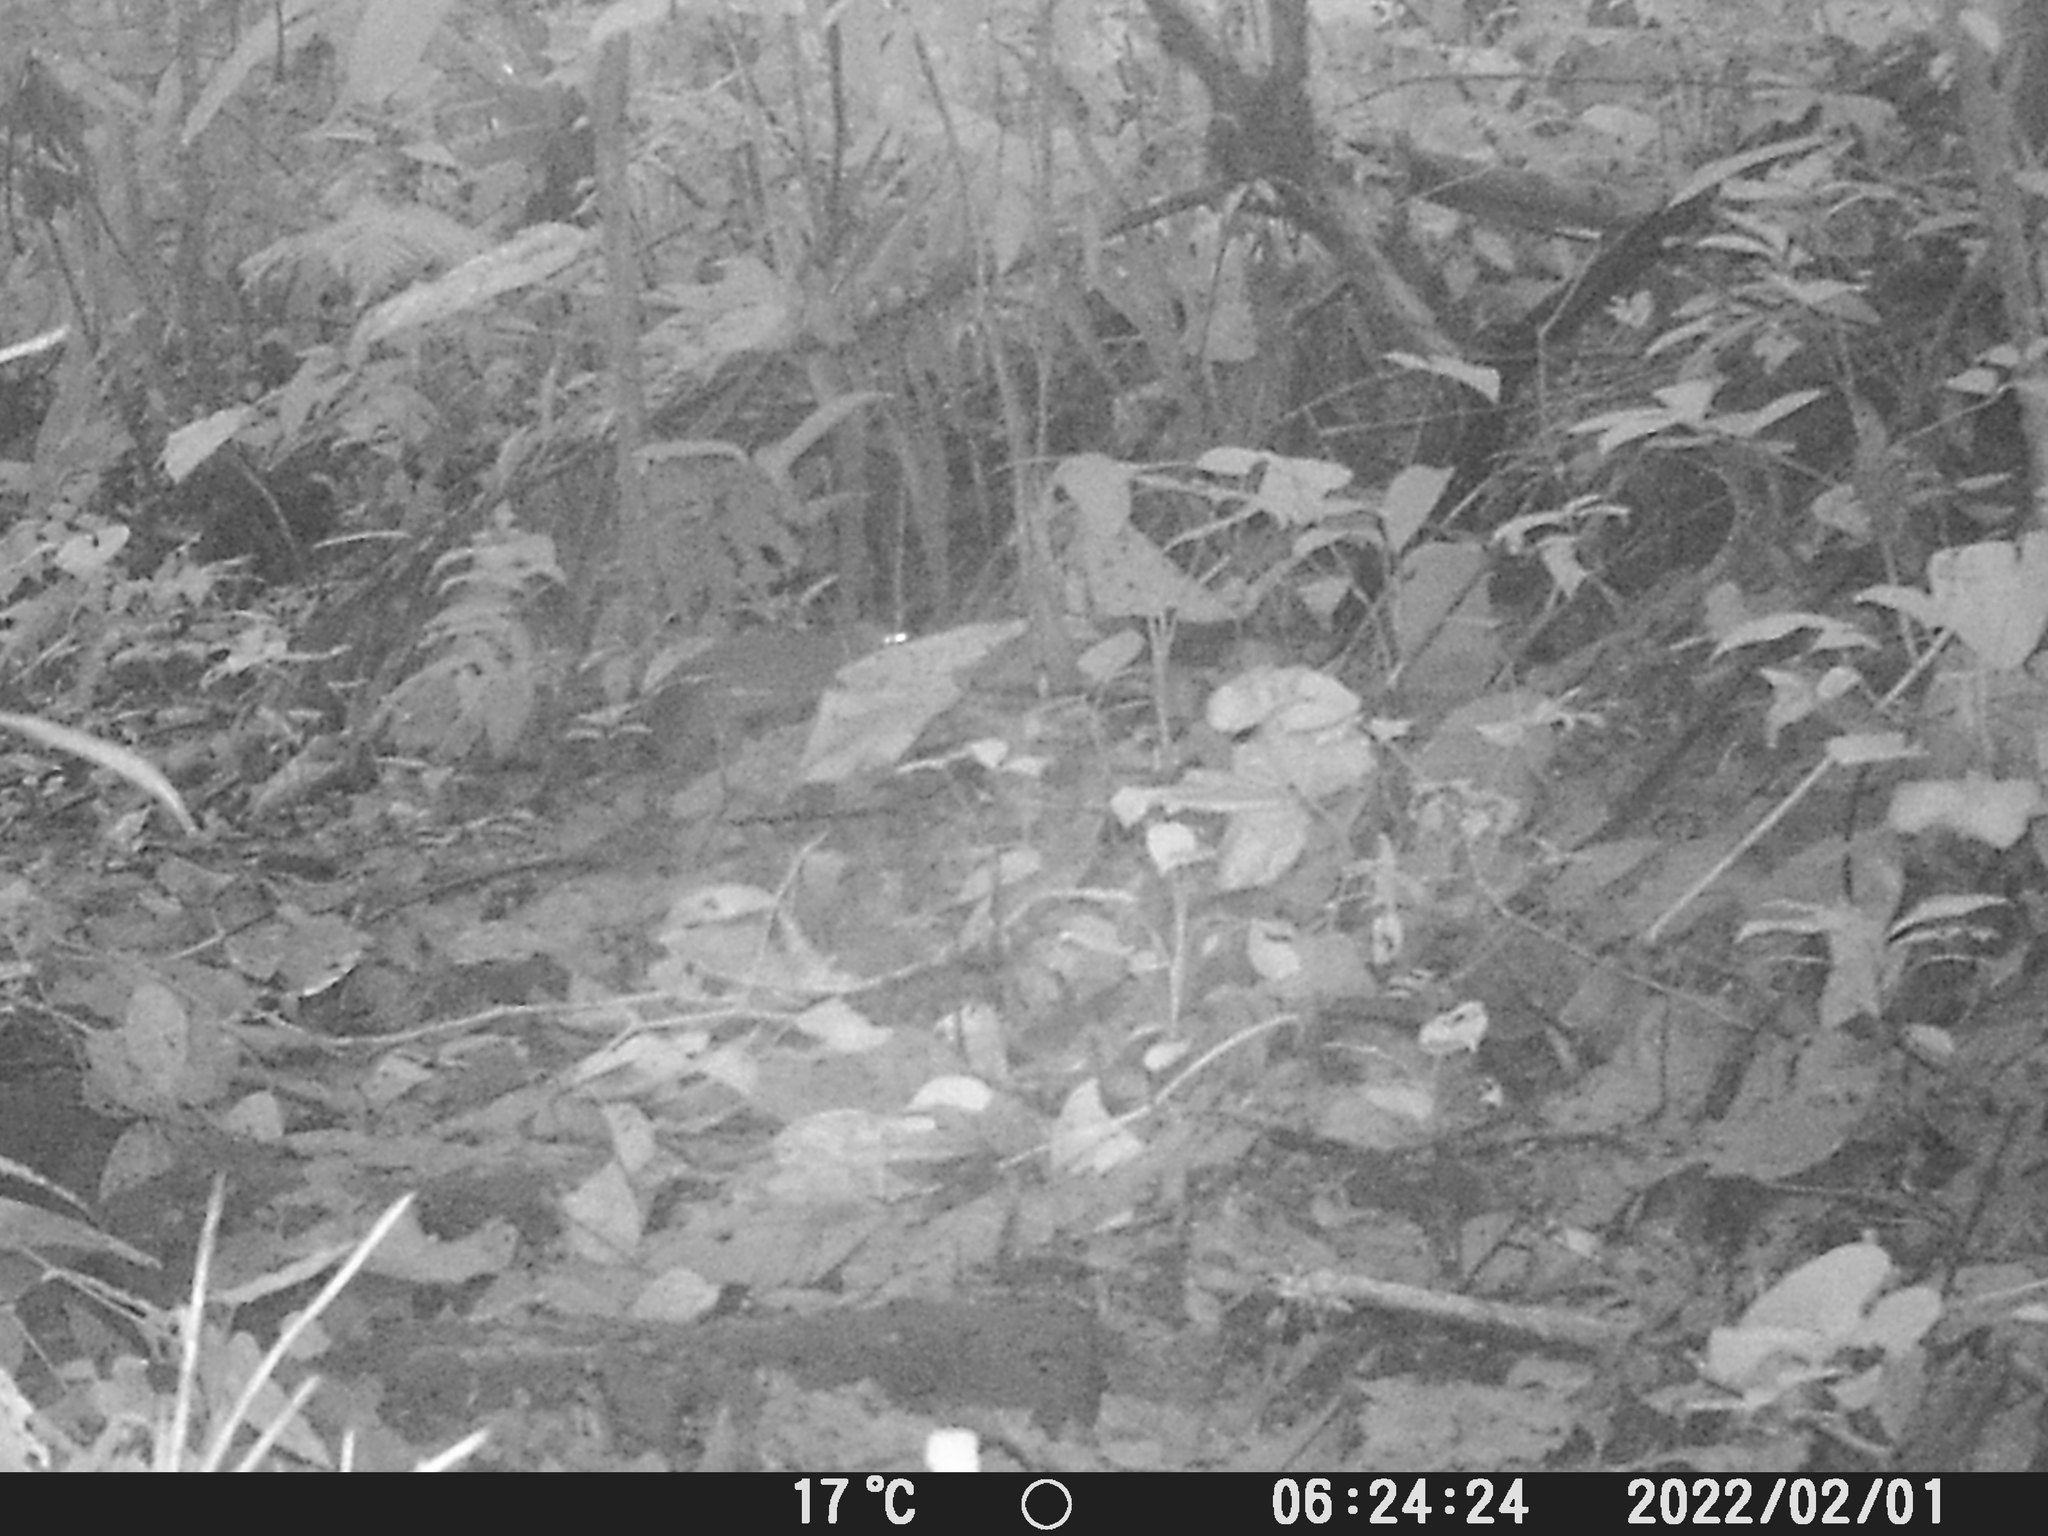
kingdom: Animalia
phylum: Chordata
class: Mammalia
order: Rodentia
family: Dasyproctidae
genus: Dasyprocta
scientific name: Dasyprocta punctata
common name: Central american agouti
